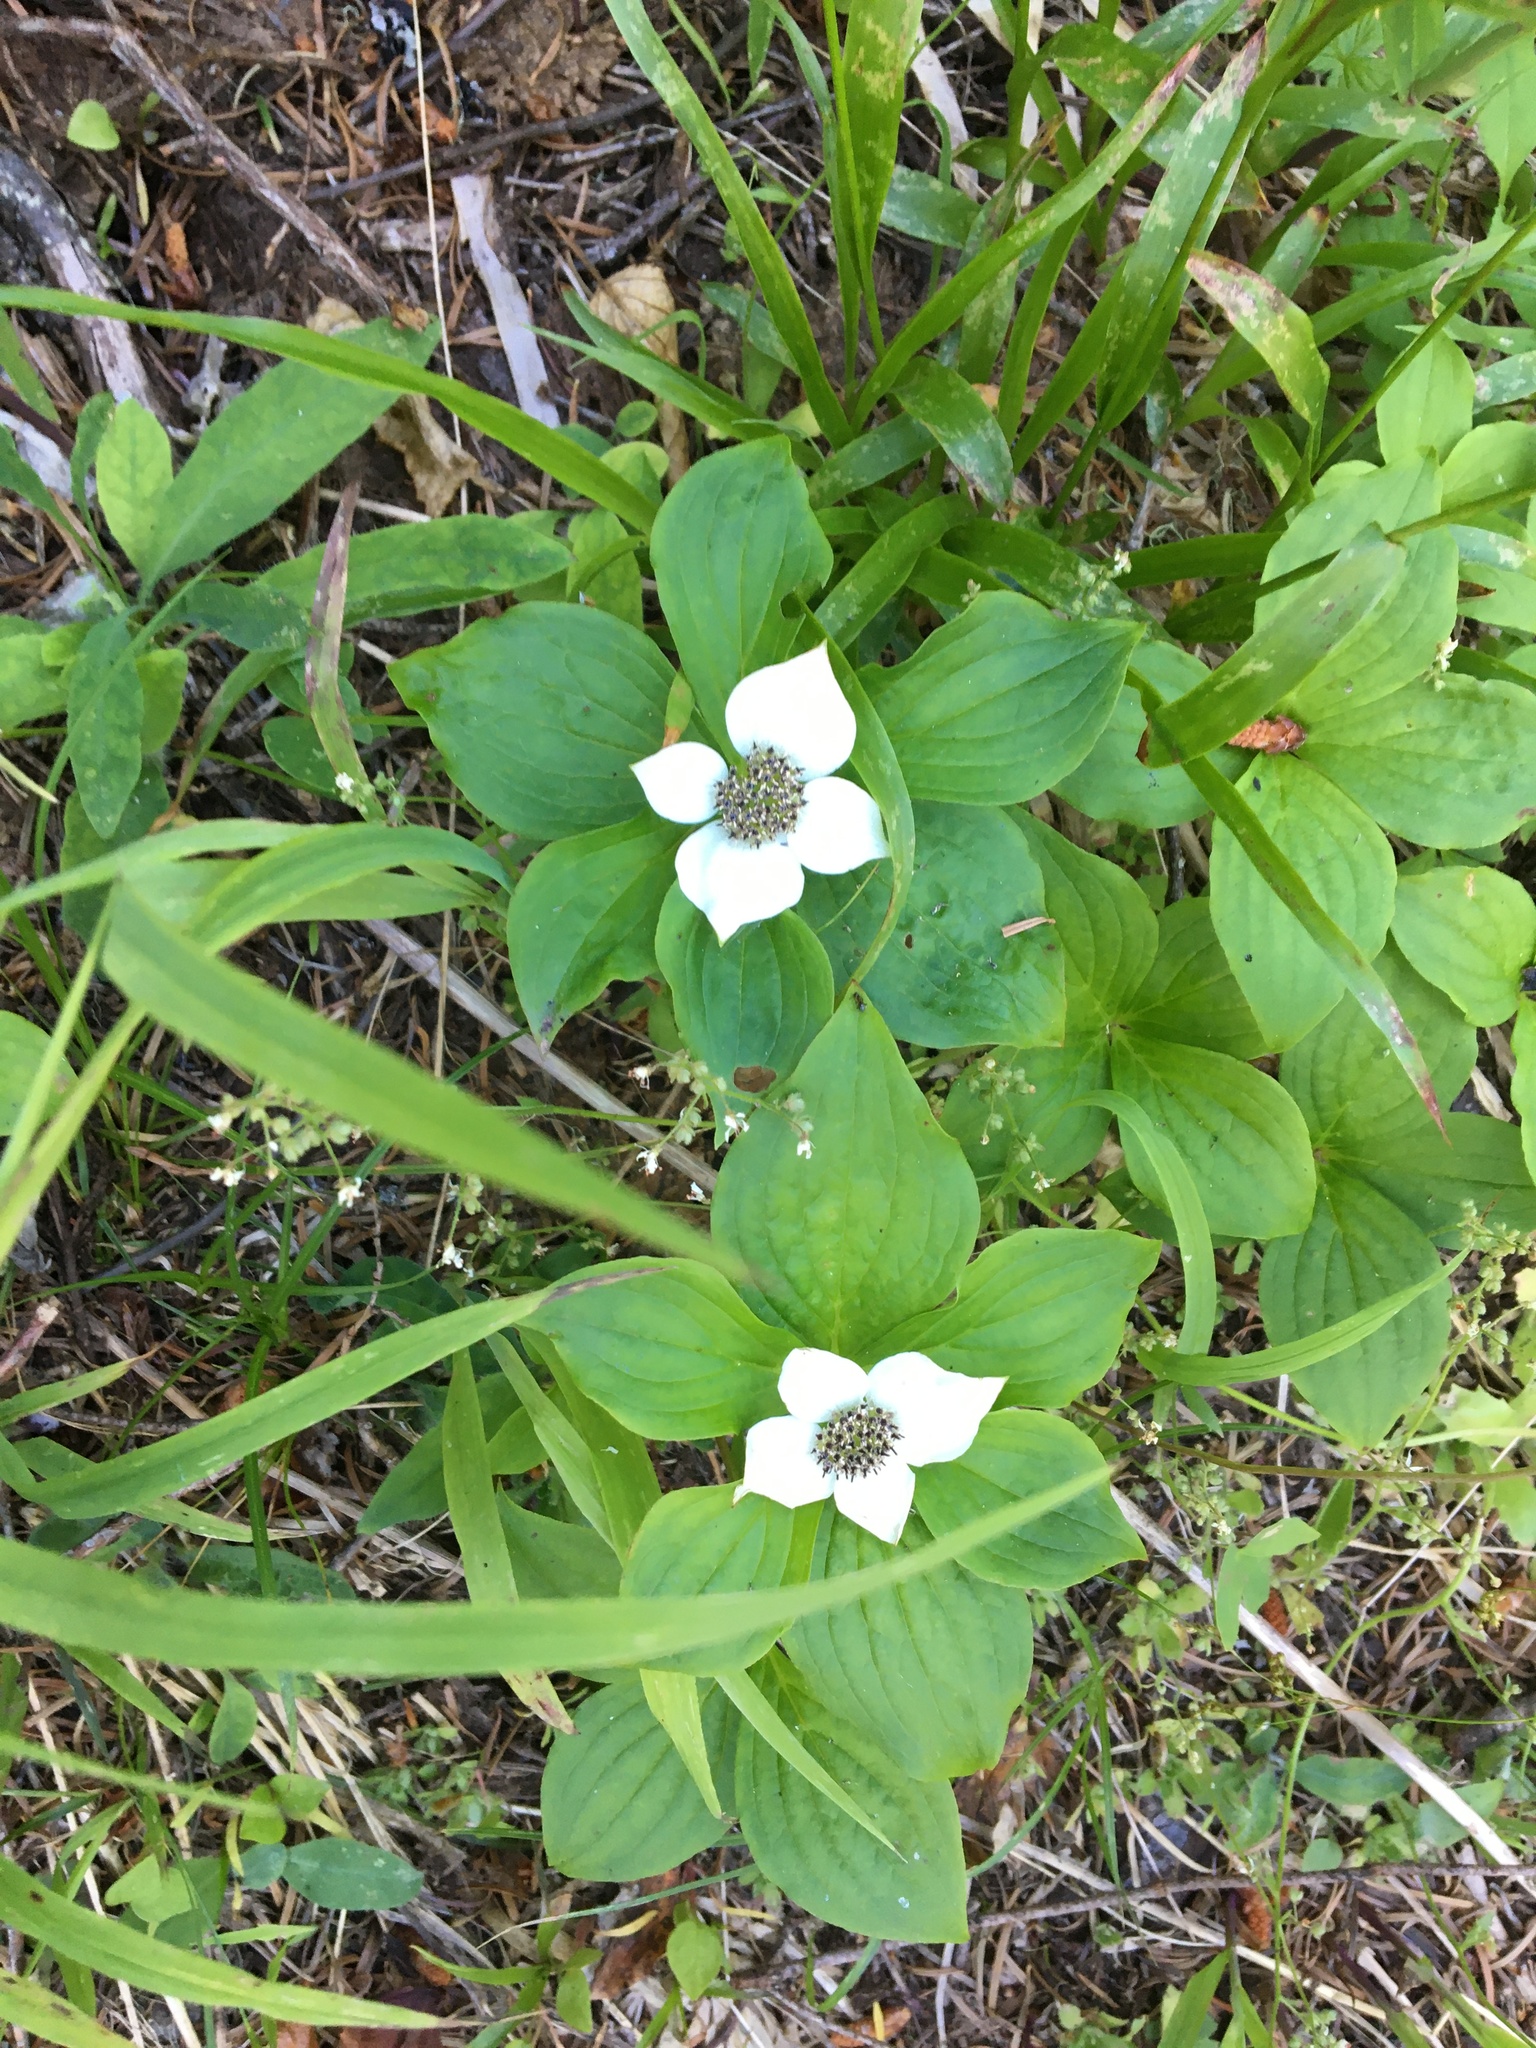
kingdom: Plantae
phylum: Tracheophyta
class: Magnoliopsida
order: Cornales
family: Cornaceae
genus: Cornus
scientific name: Cornus unalaschkensis
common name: Alaska bunchberry
